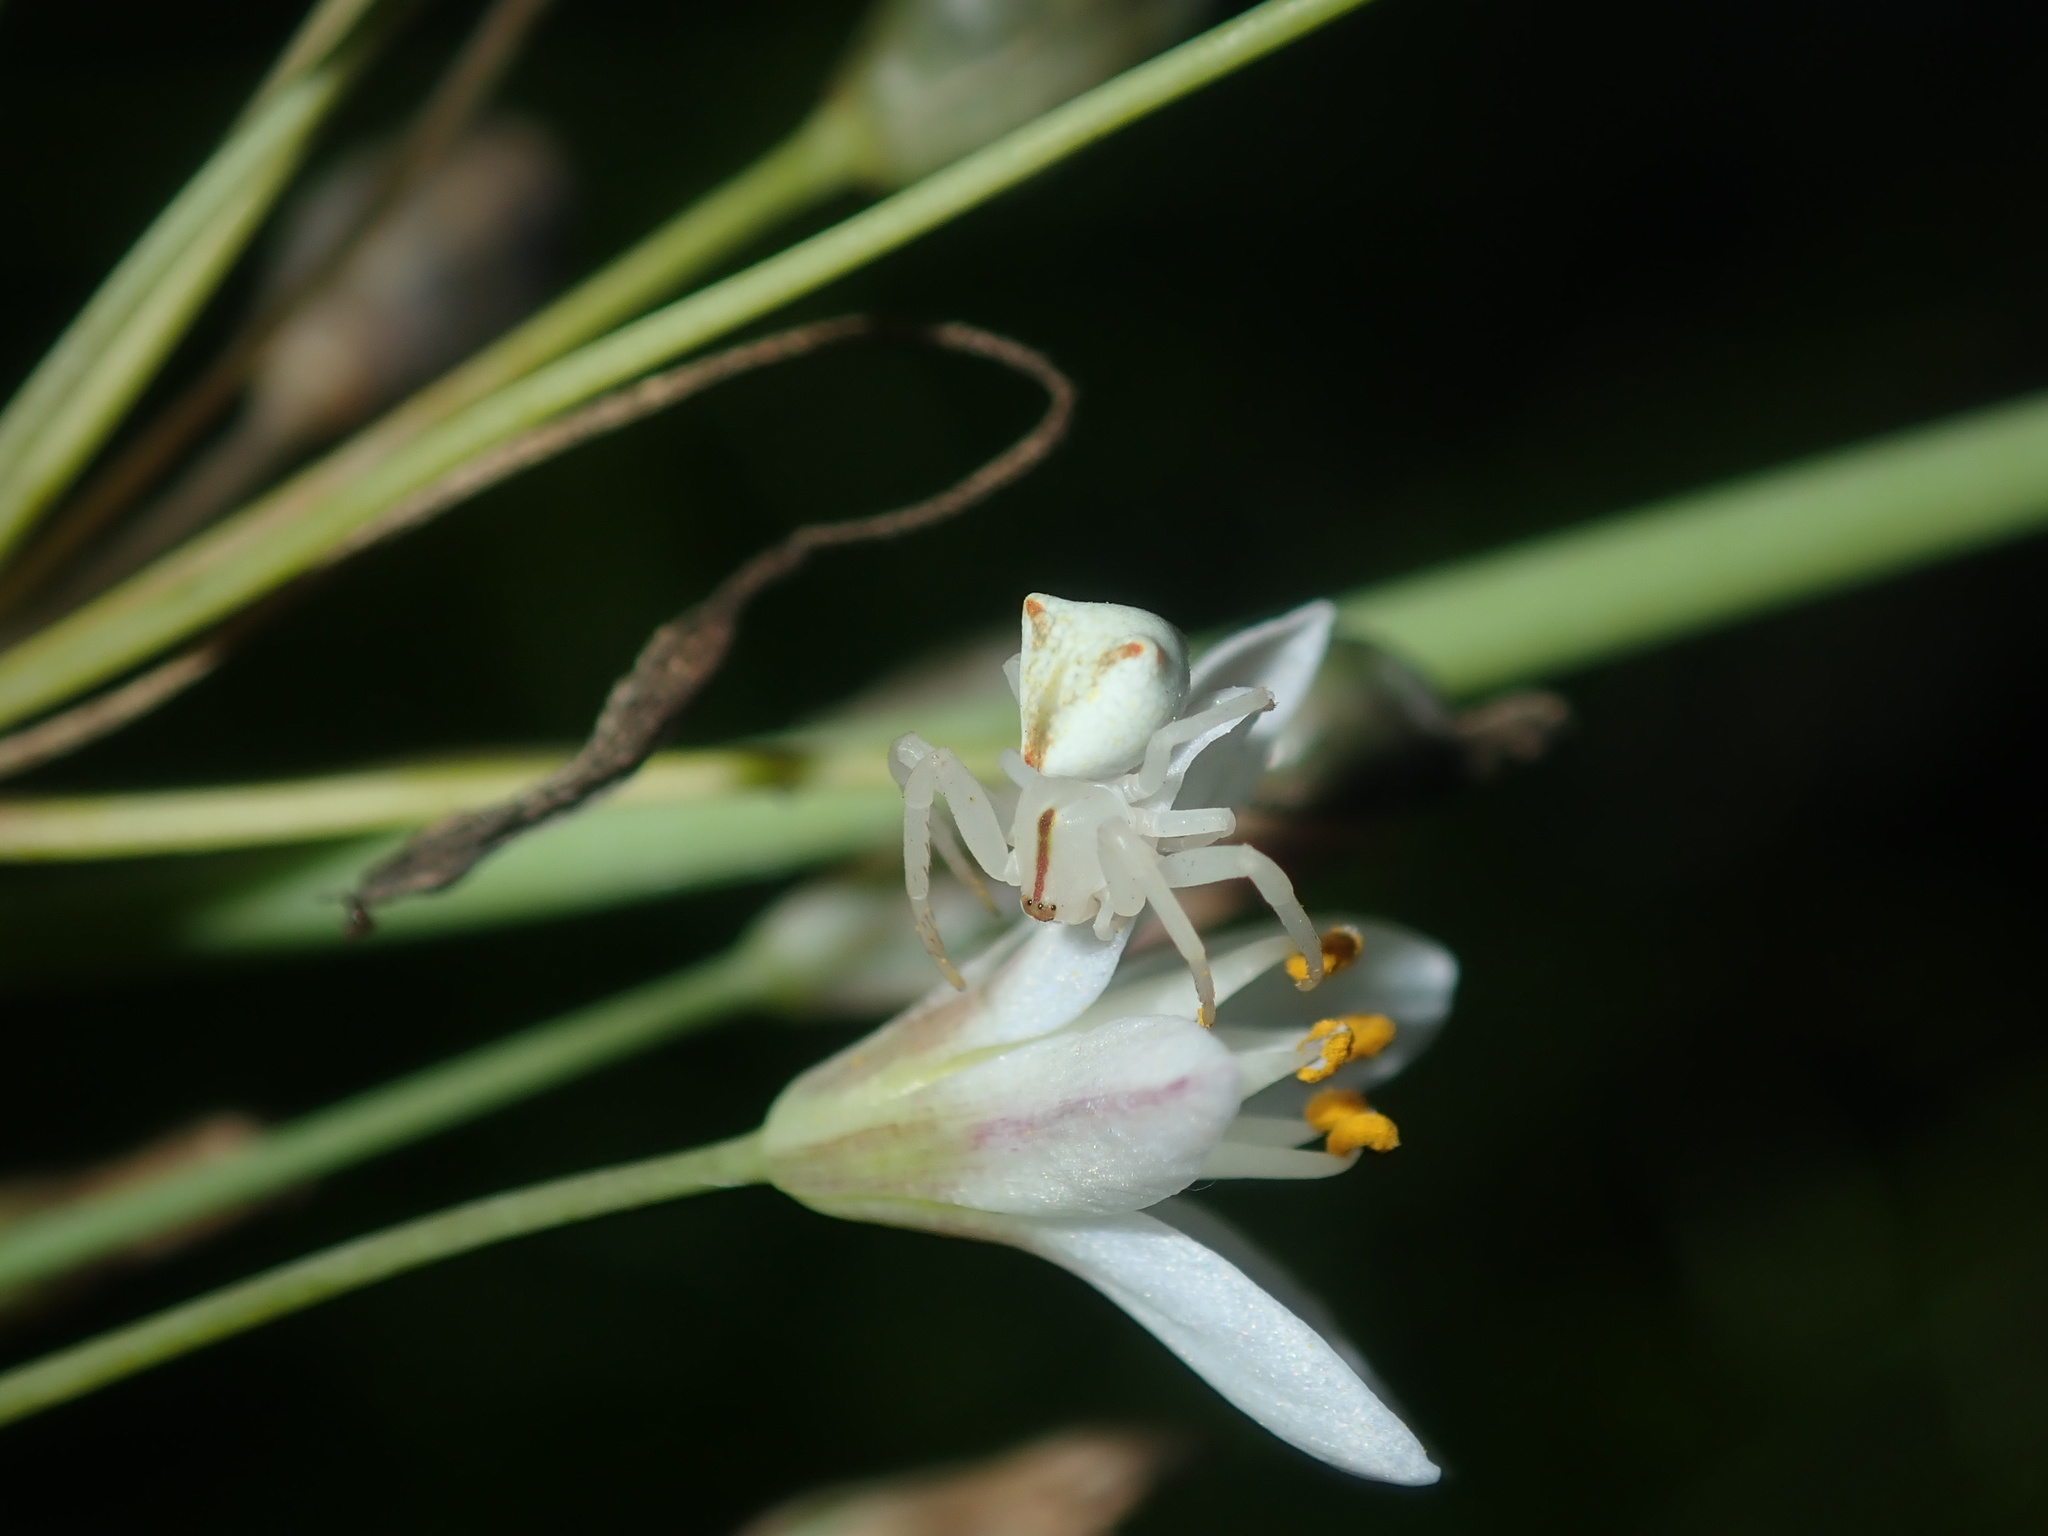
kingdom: Animalia
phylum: Arthropoda
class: Arachnida
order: Araneae
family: Thomisidae
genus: Sidymella
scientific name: Sidymella rubrosignata
